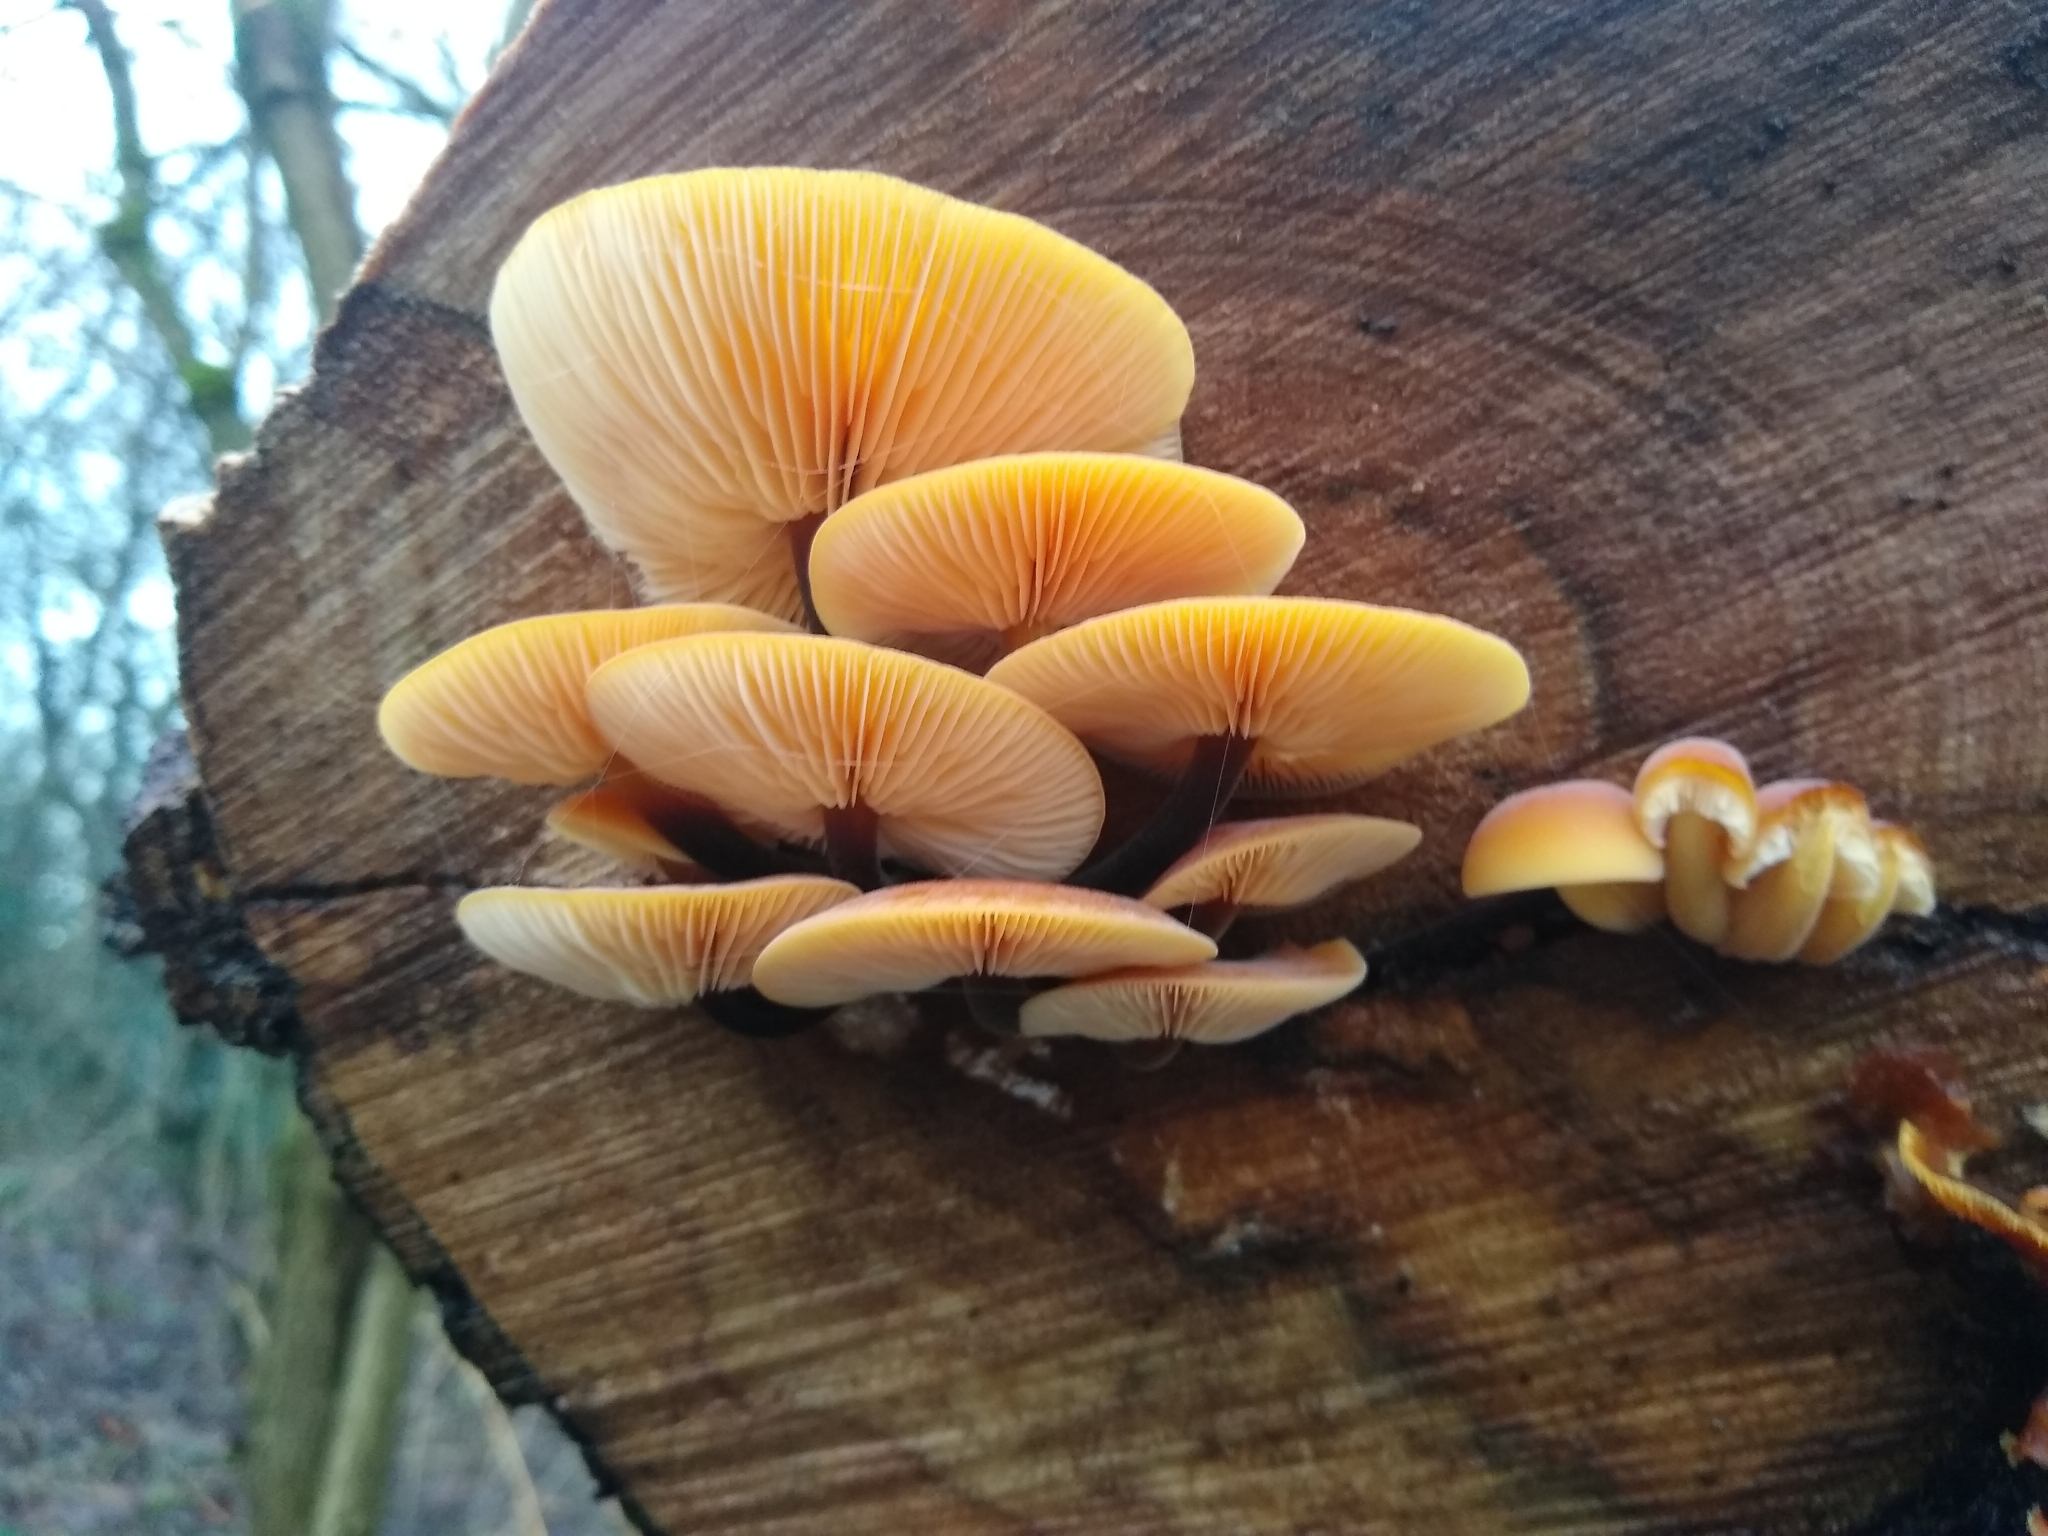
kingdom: Fungi
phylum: Basidiomycota
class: Agaricomycetes
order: Agaricales
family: Physalacriaceae
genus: Flammulina
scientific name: Flammulina
